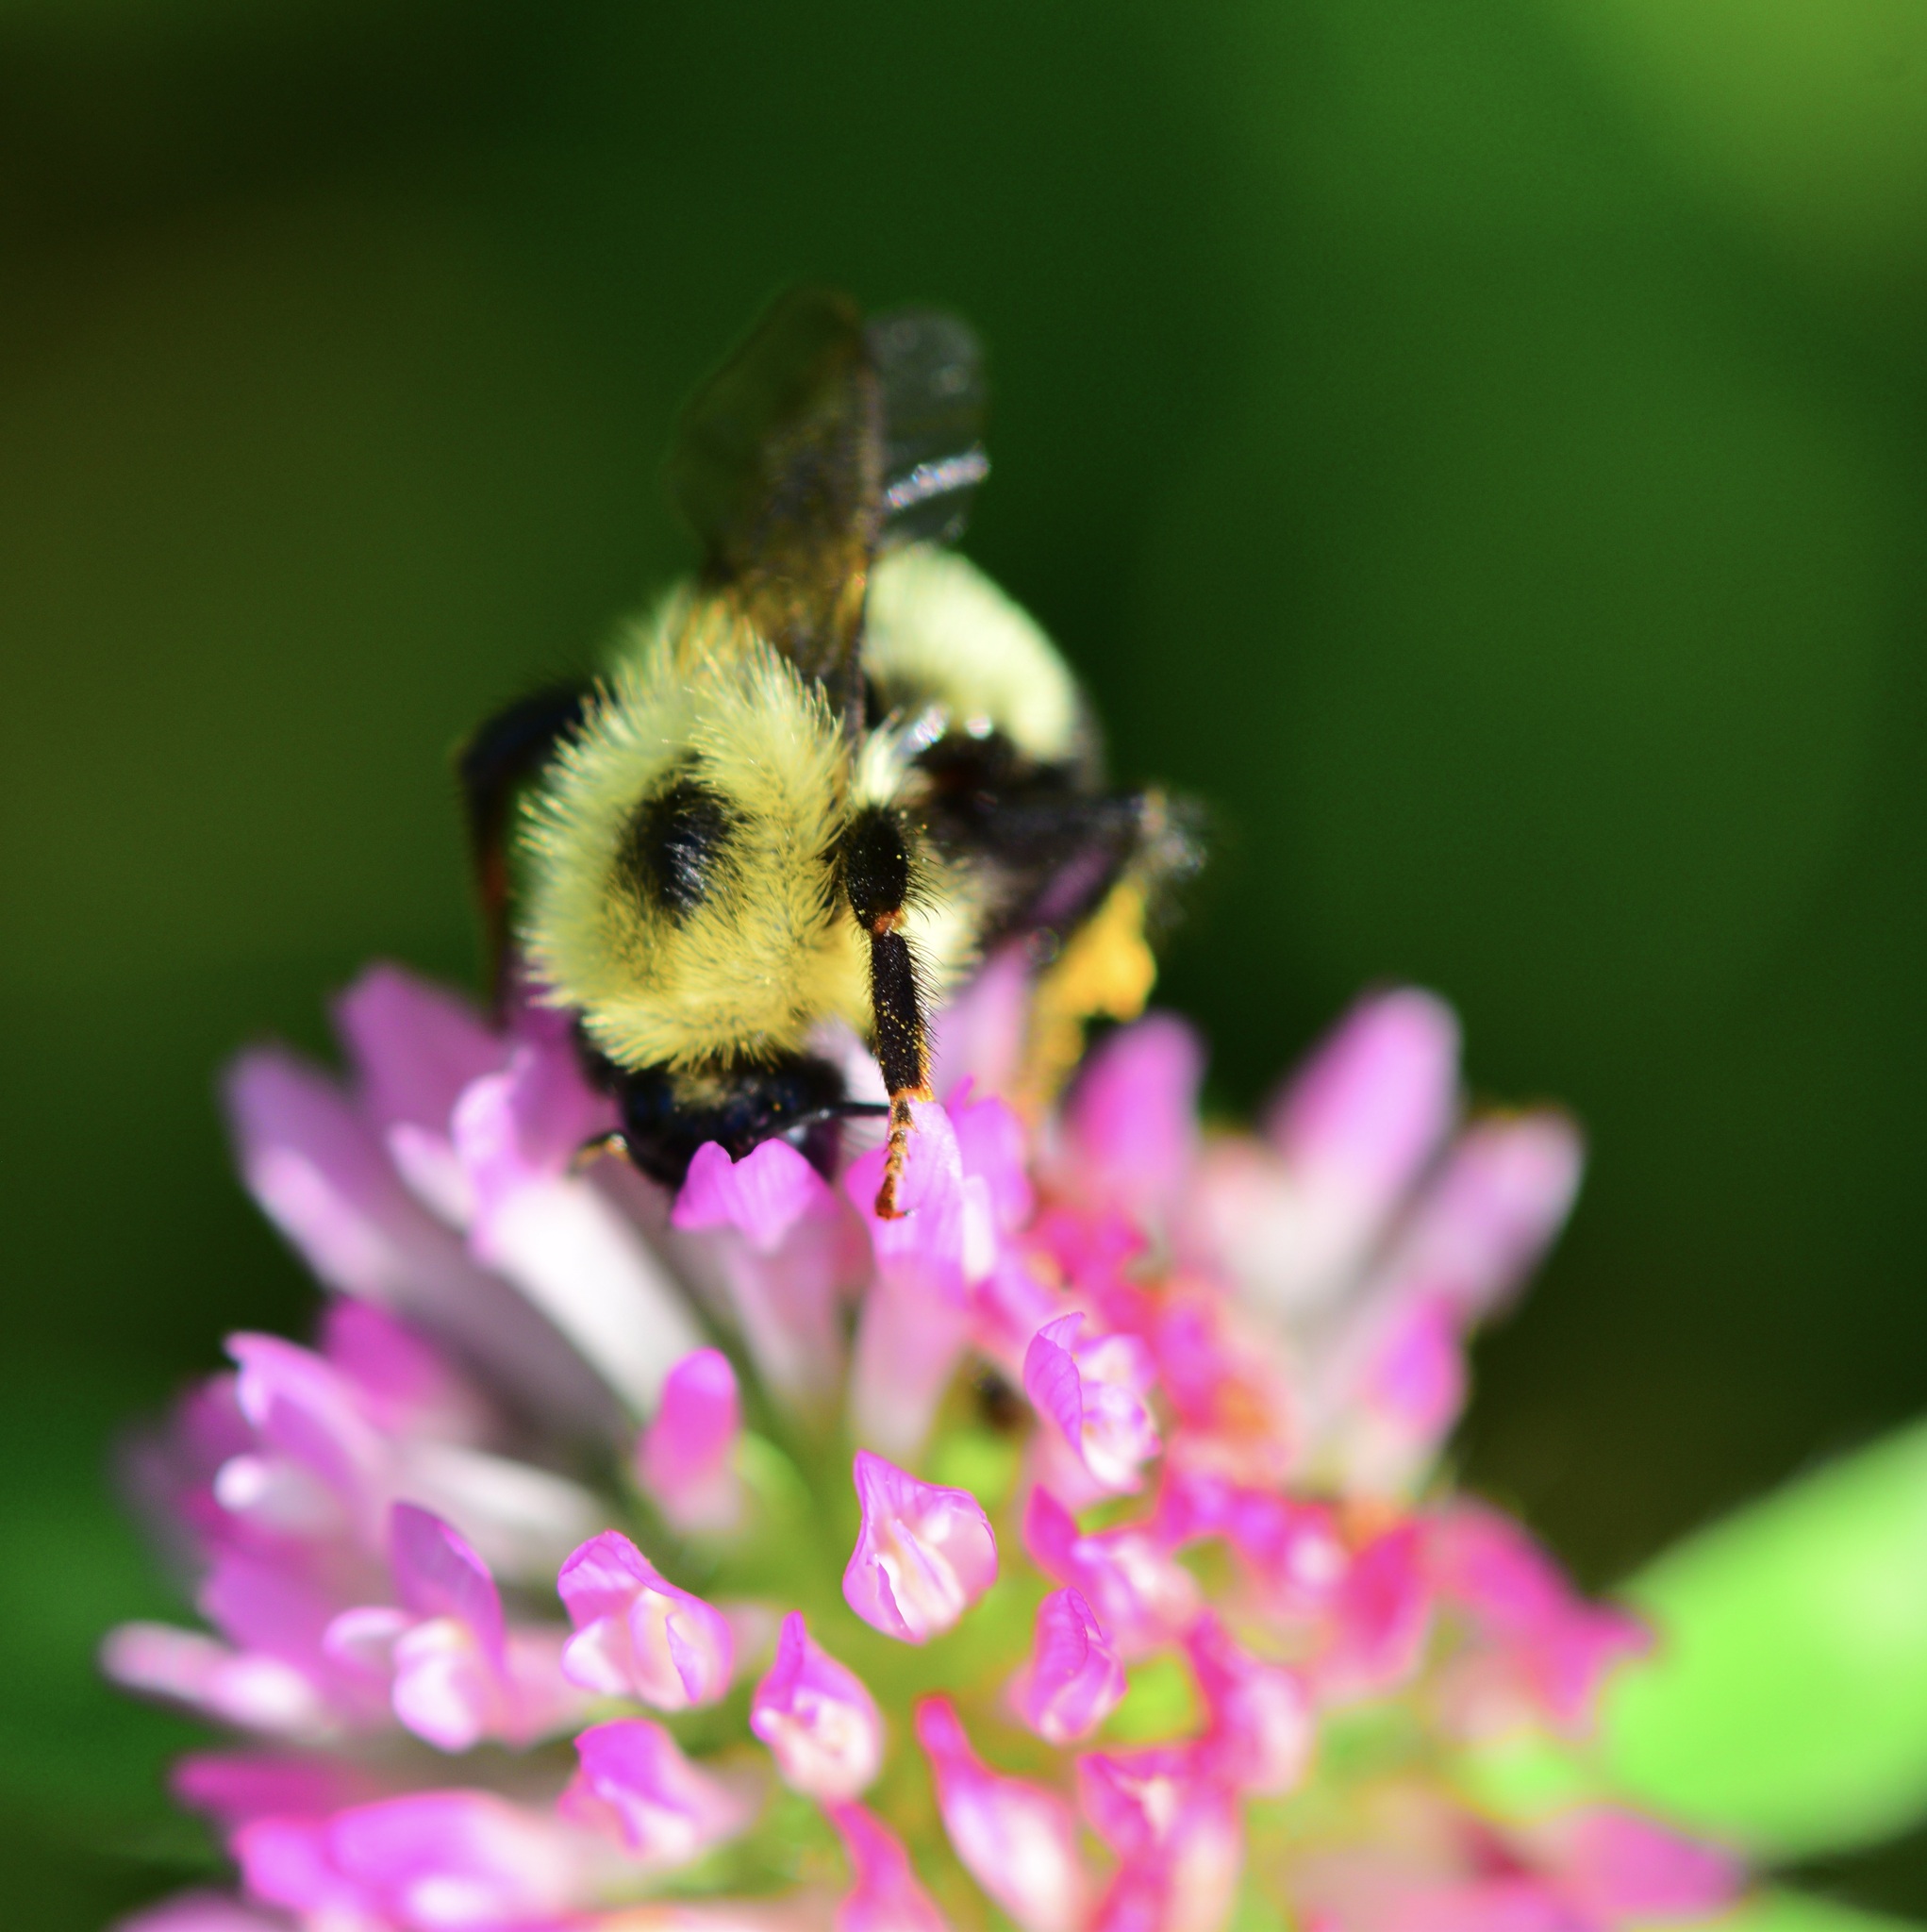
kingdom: Animalia
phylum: Arthropoda
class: Insecta
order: Hymenoptera
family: Apidae
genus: Pyrobombus
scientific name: Pyrobombus
